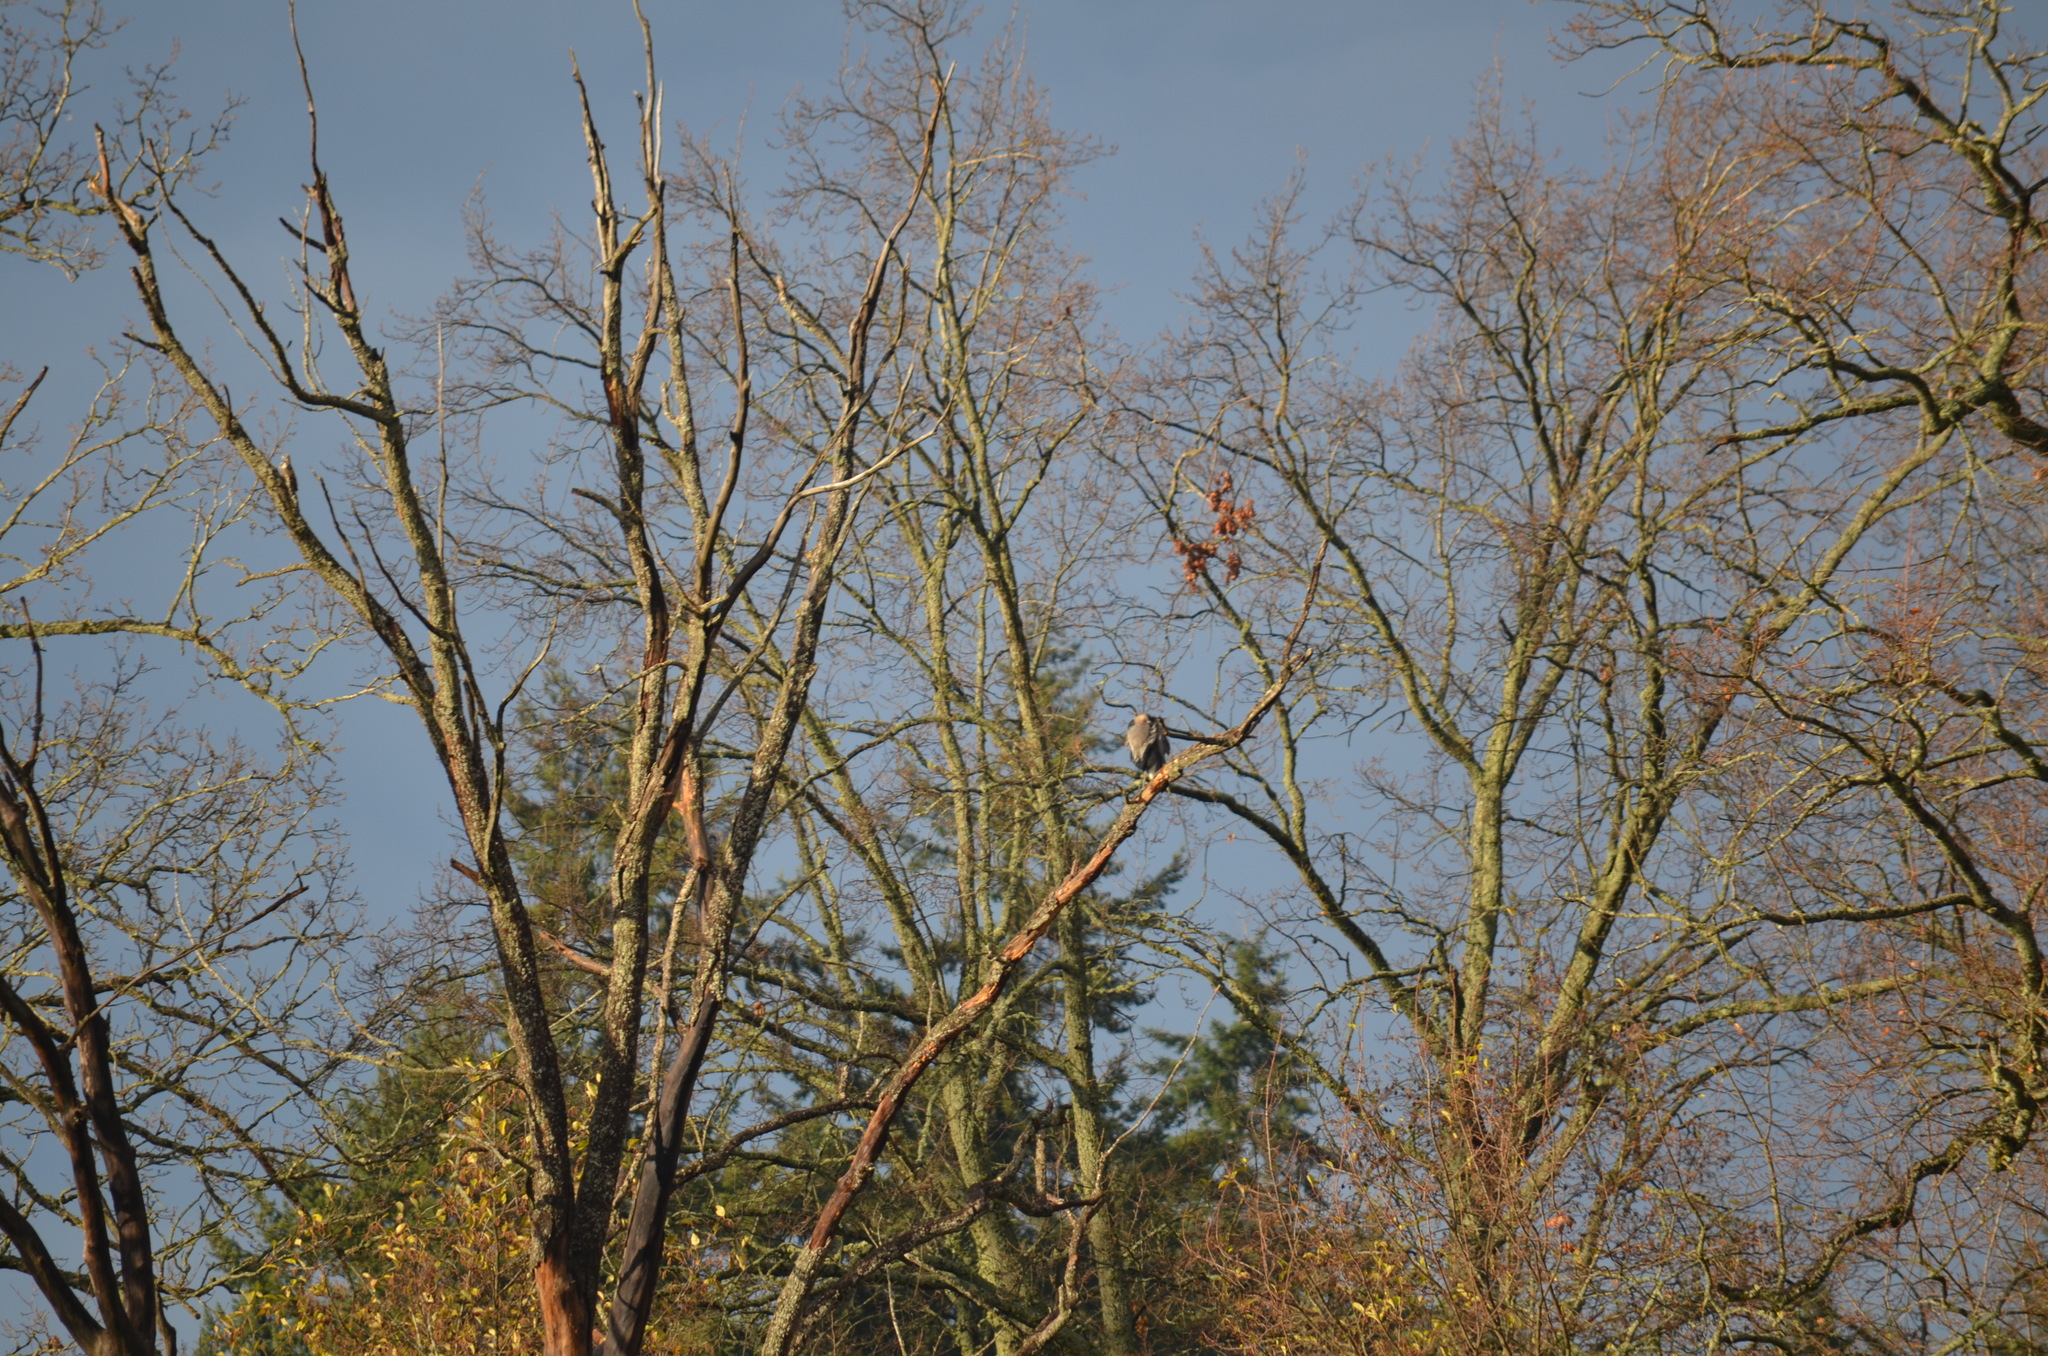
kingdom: Animalia
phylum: Chordata
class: Aves
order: Pelecaniformes
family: Ardeidae
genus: Ardea
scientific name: Ardea herodias
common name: Great blue heron
